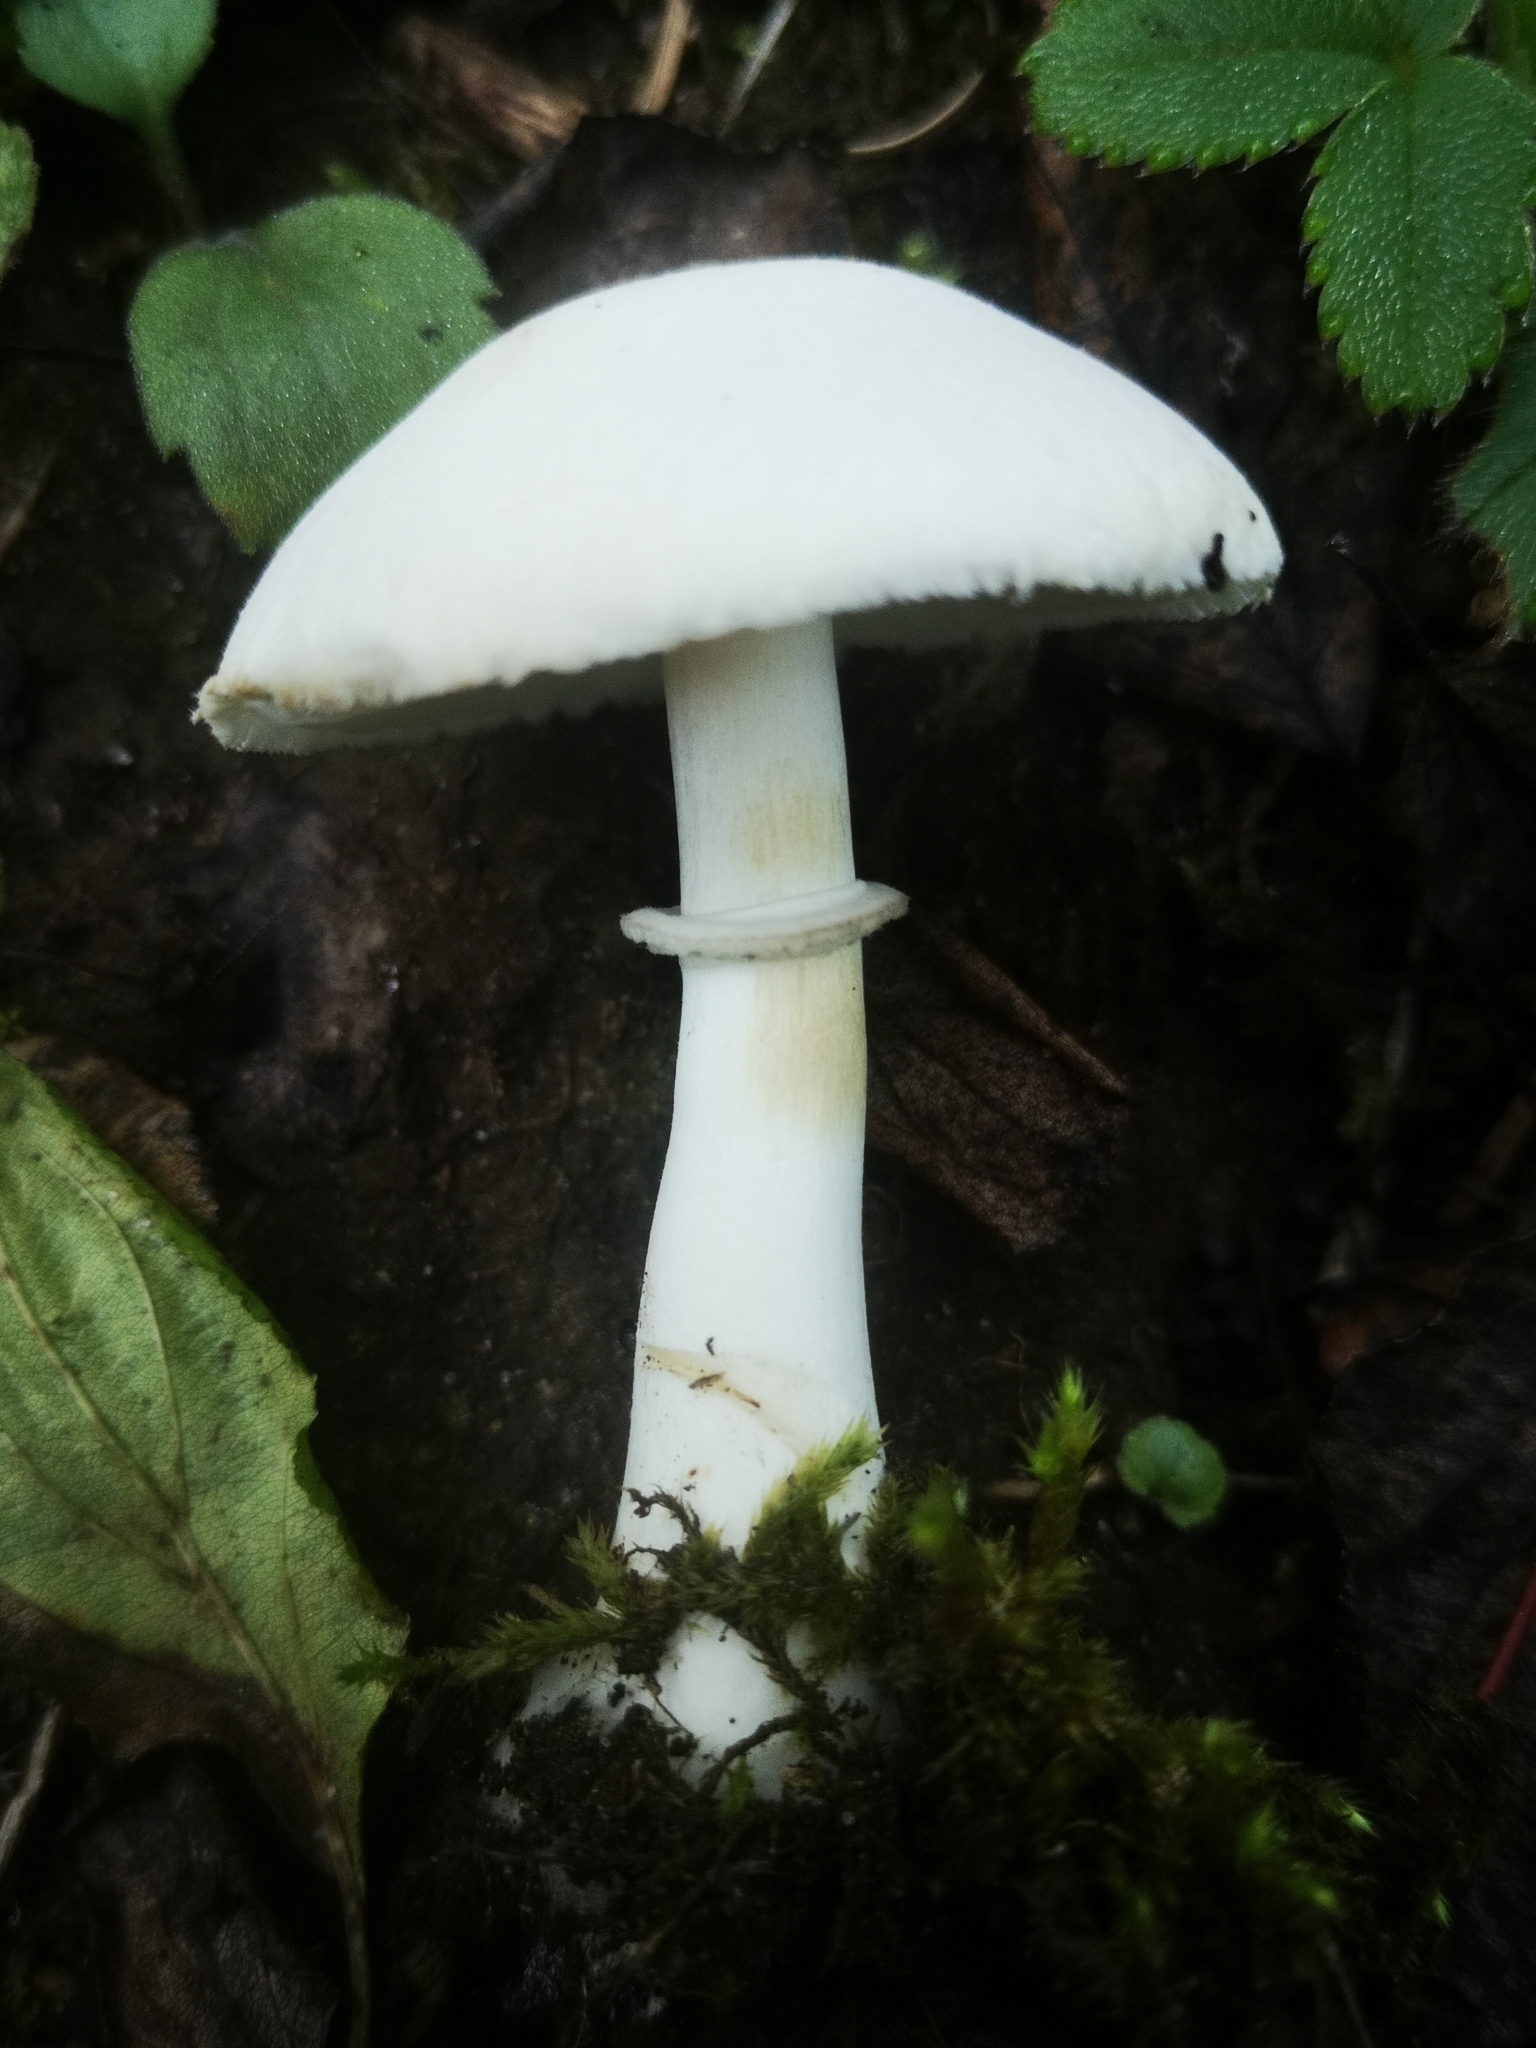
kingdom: Fungi
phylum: Basidiomycota
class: Agaricomycetes
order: Agaricales
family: Agaricaceae
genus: Leucoagaricus
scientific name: Leucoagaricus leucothites
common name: White dapperling
